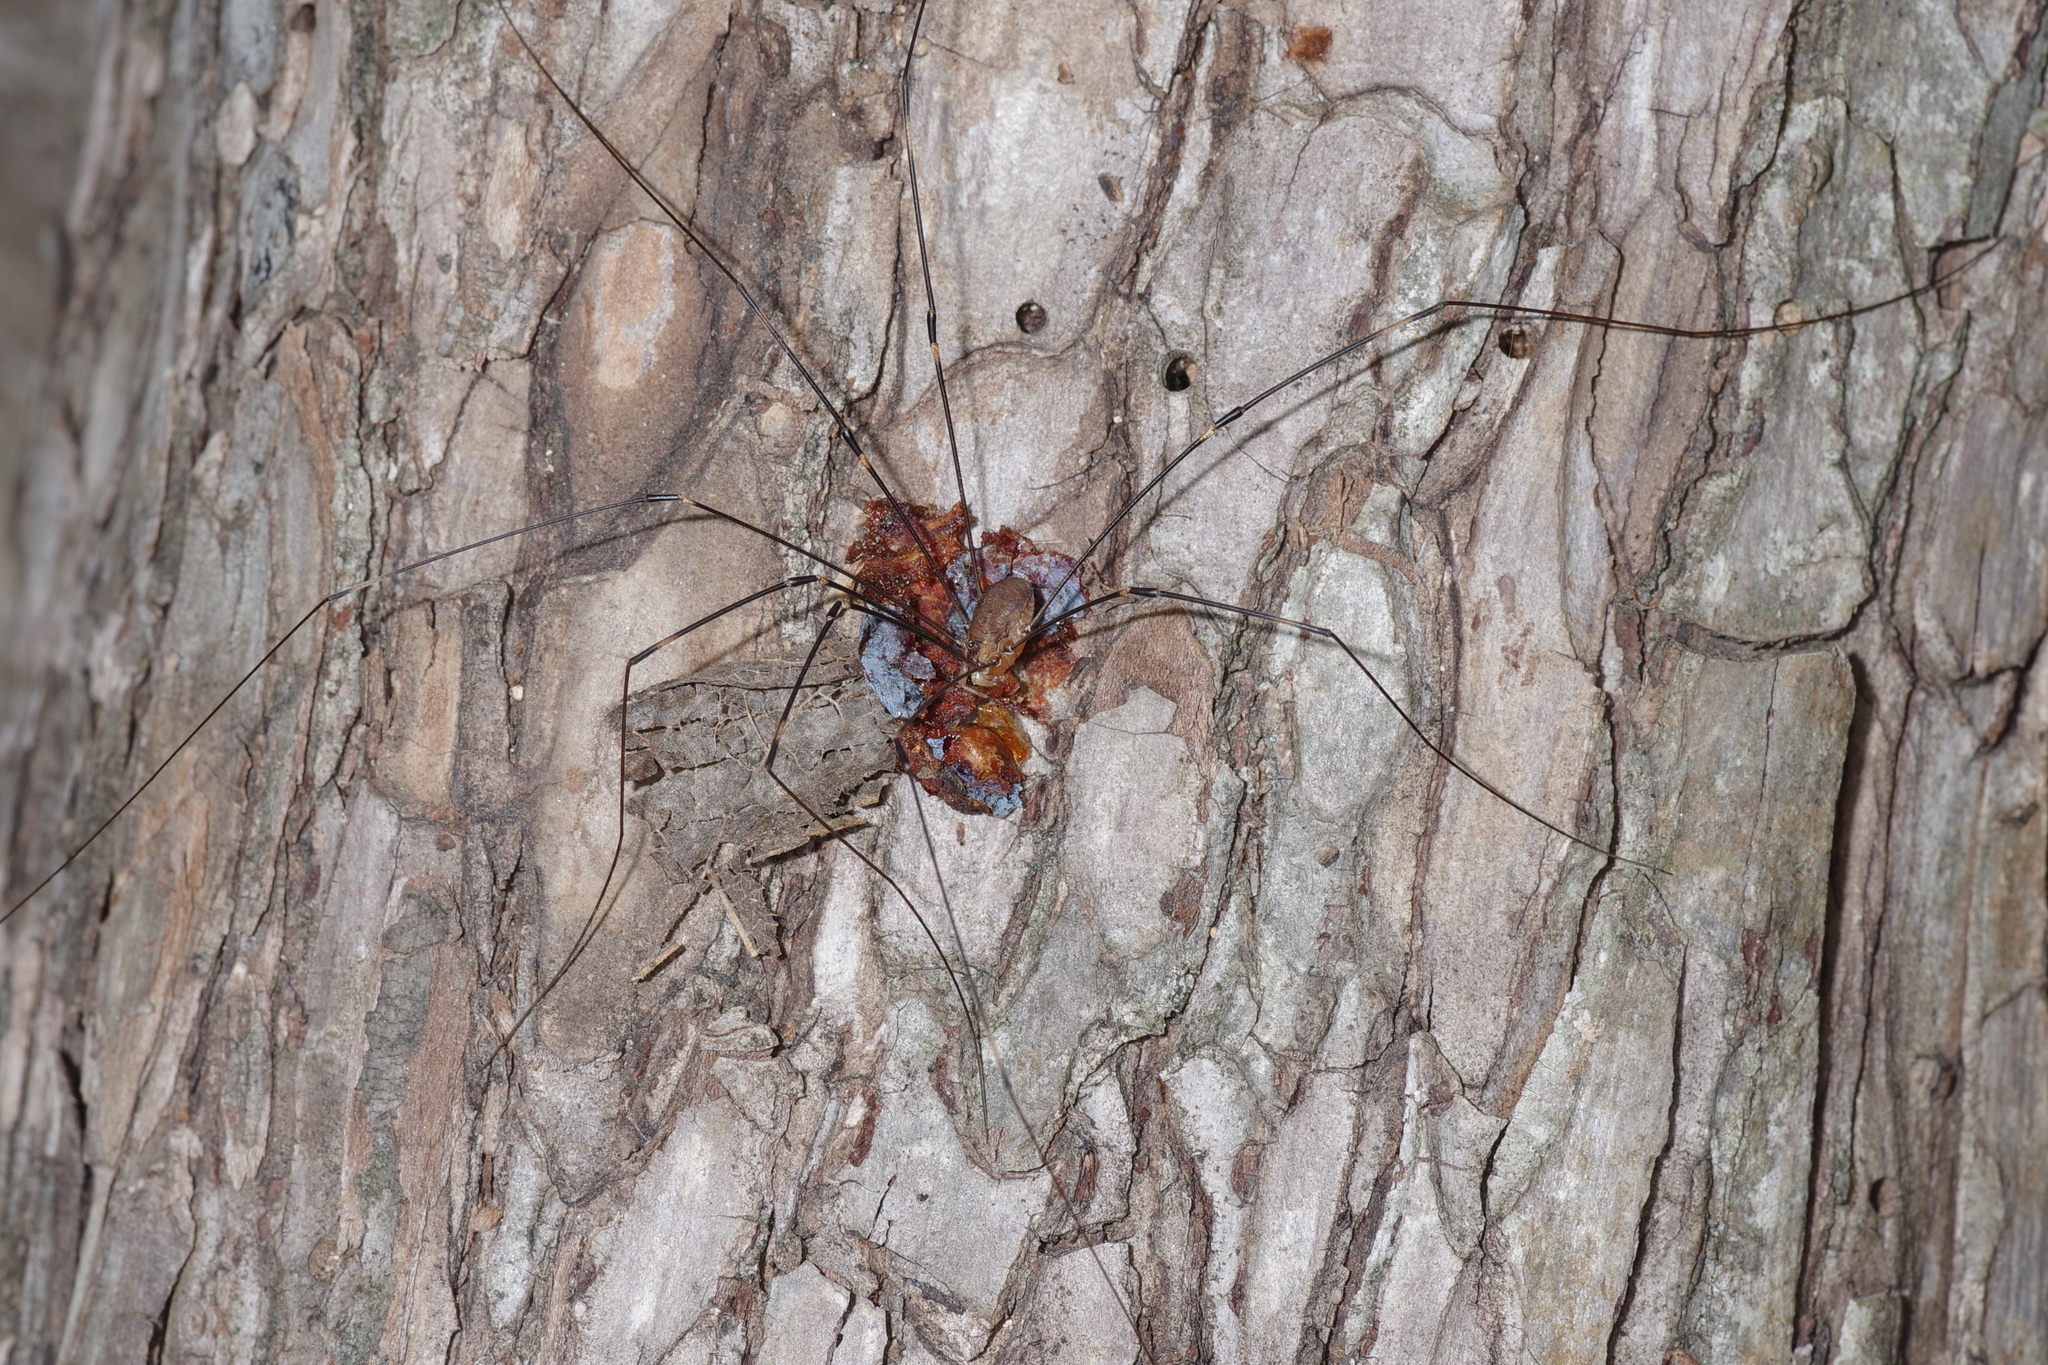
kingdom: Animalia
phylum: Arthropoda
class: Arachnida
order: Opiliones
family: Sclerosomatidae
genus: Leiobunum
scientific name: Leiobunum townsendi
